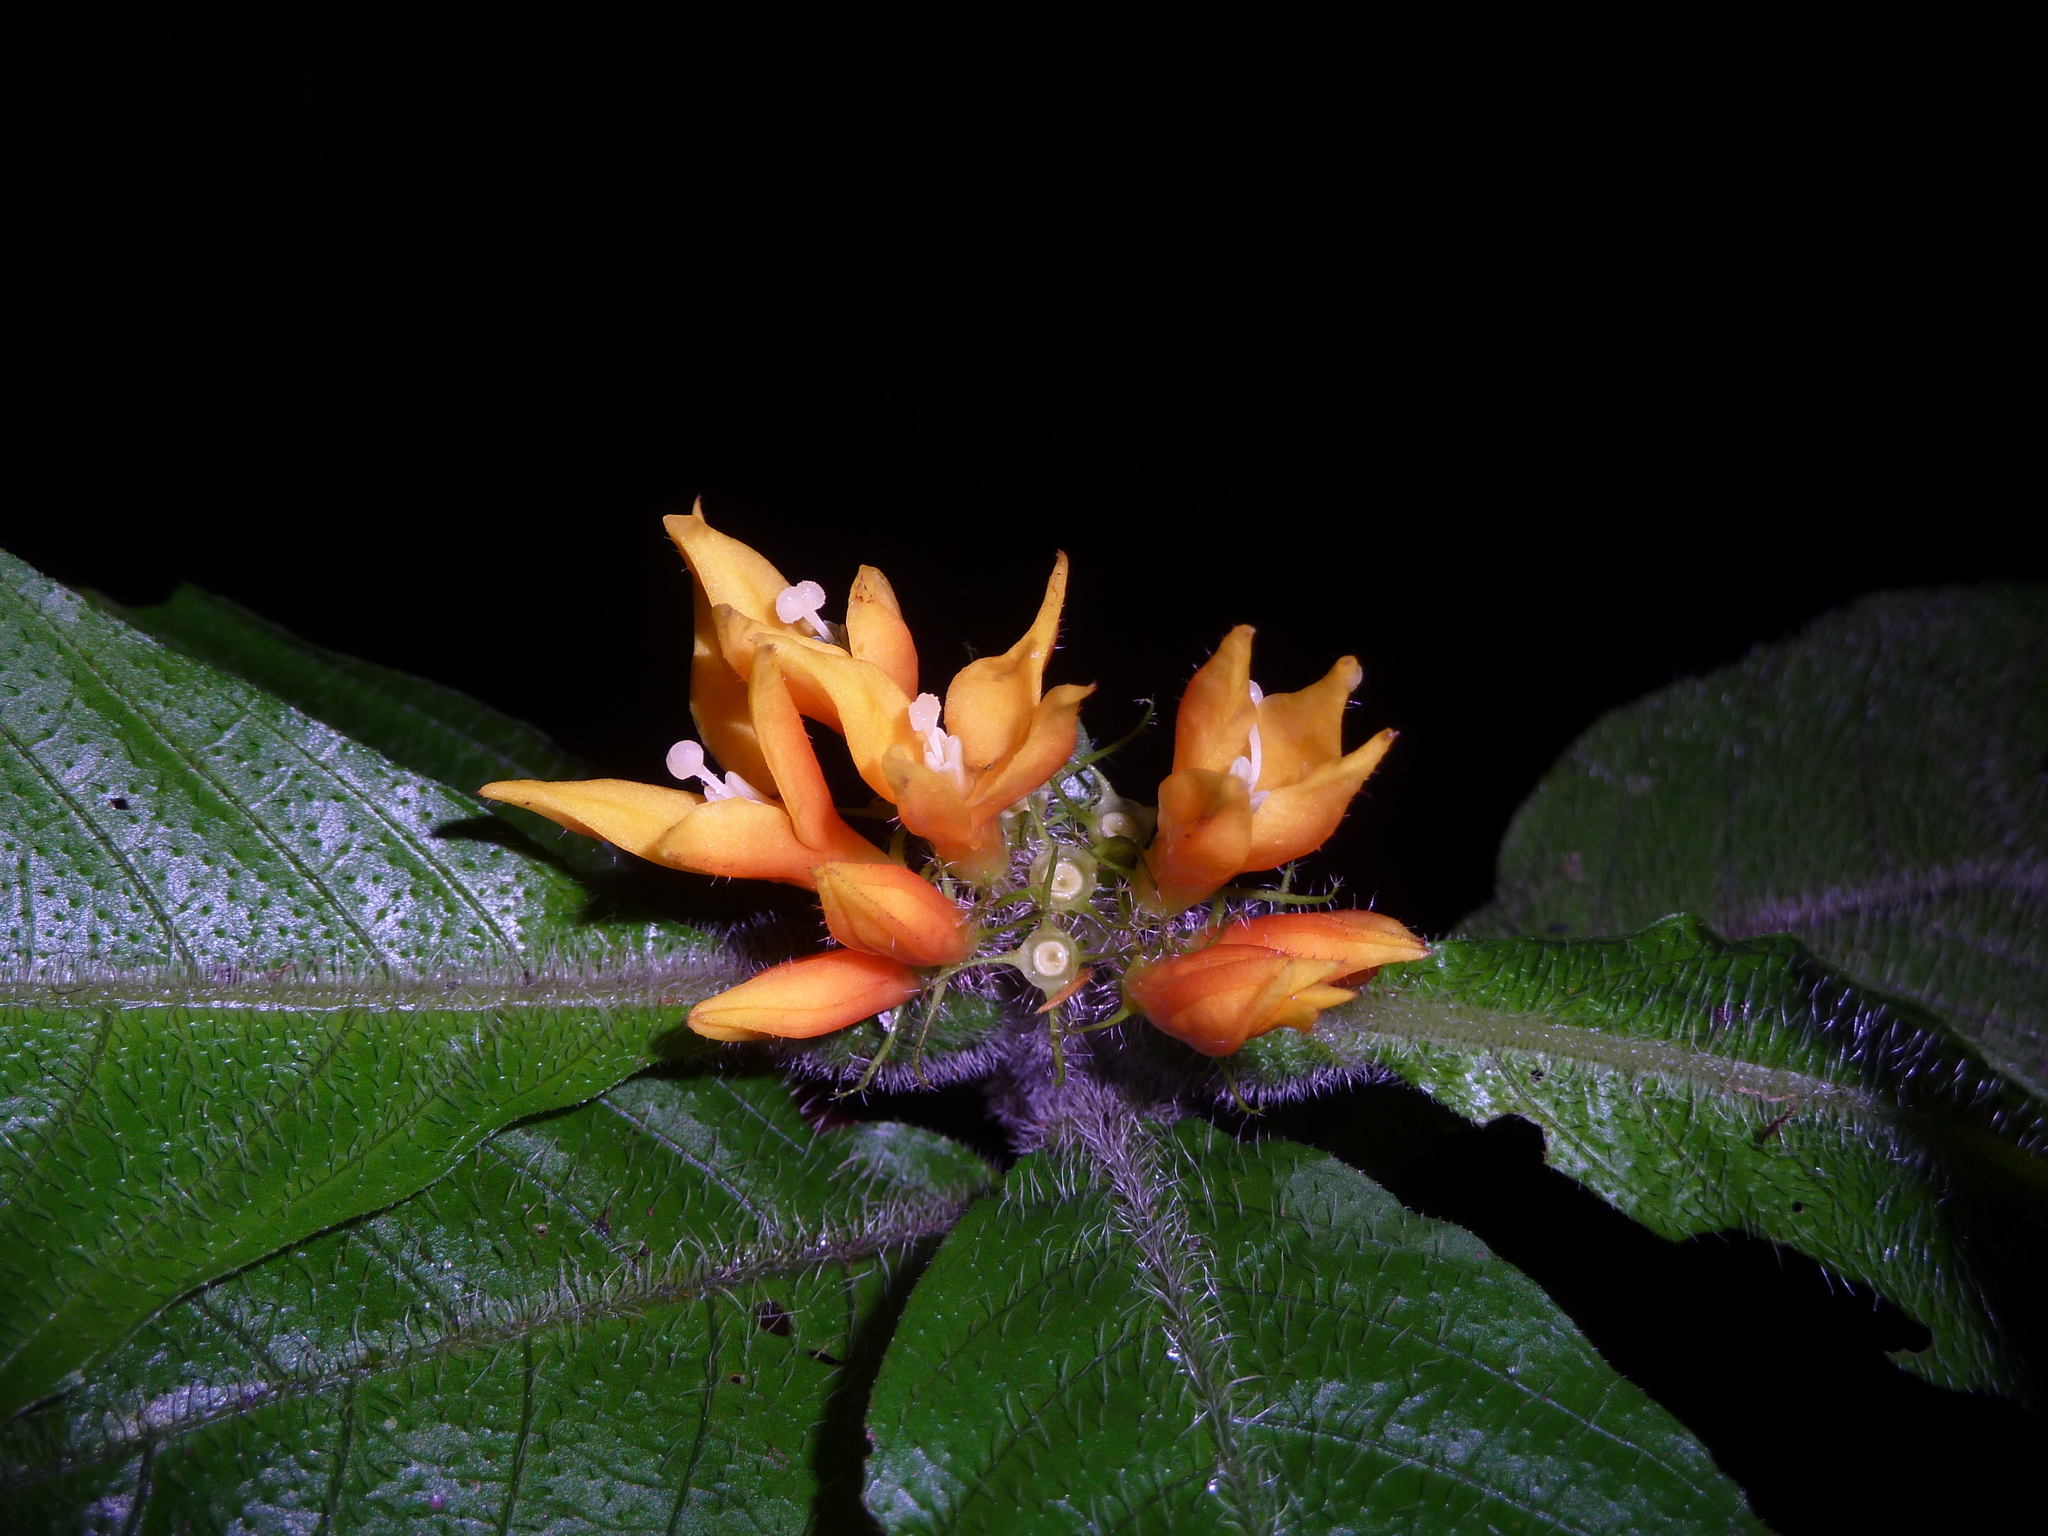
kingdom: Plantae
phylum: Tracheophyta
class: Magnoliopsida
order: Gentianales
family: Rubiaceae
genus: Hoffmannia
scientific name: Hoffmannia limonensis
